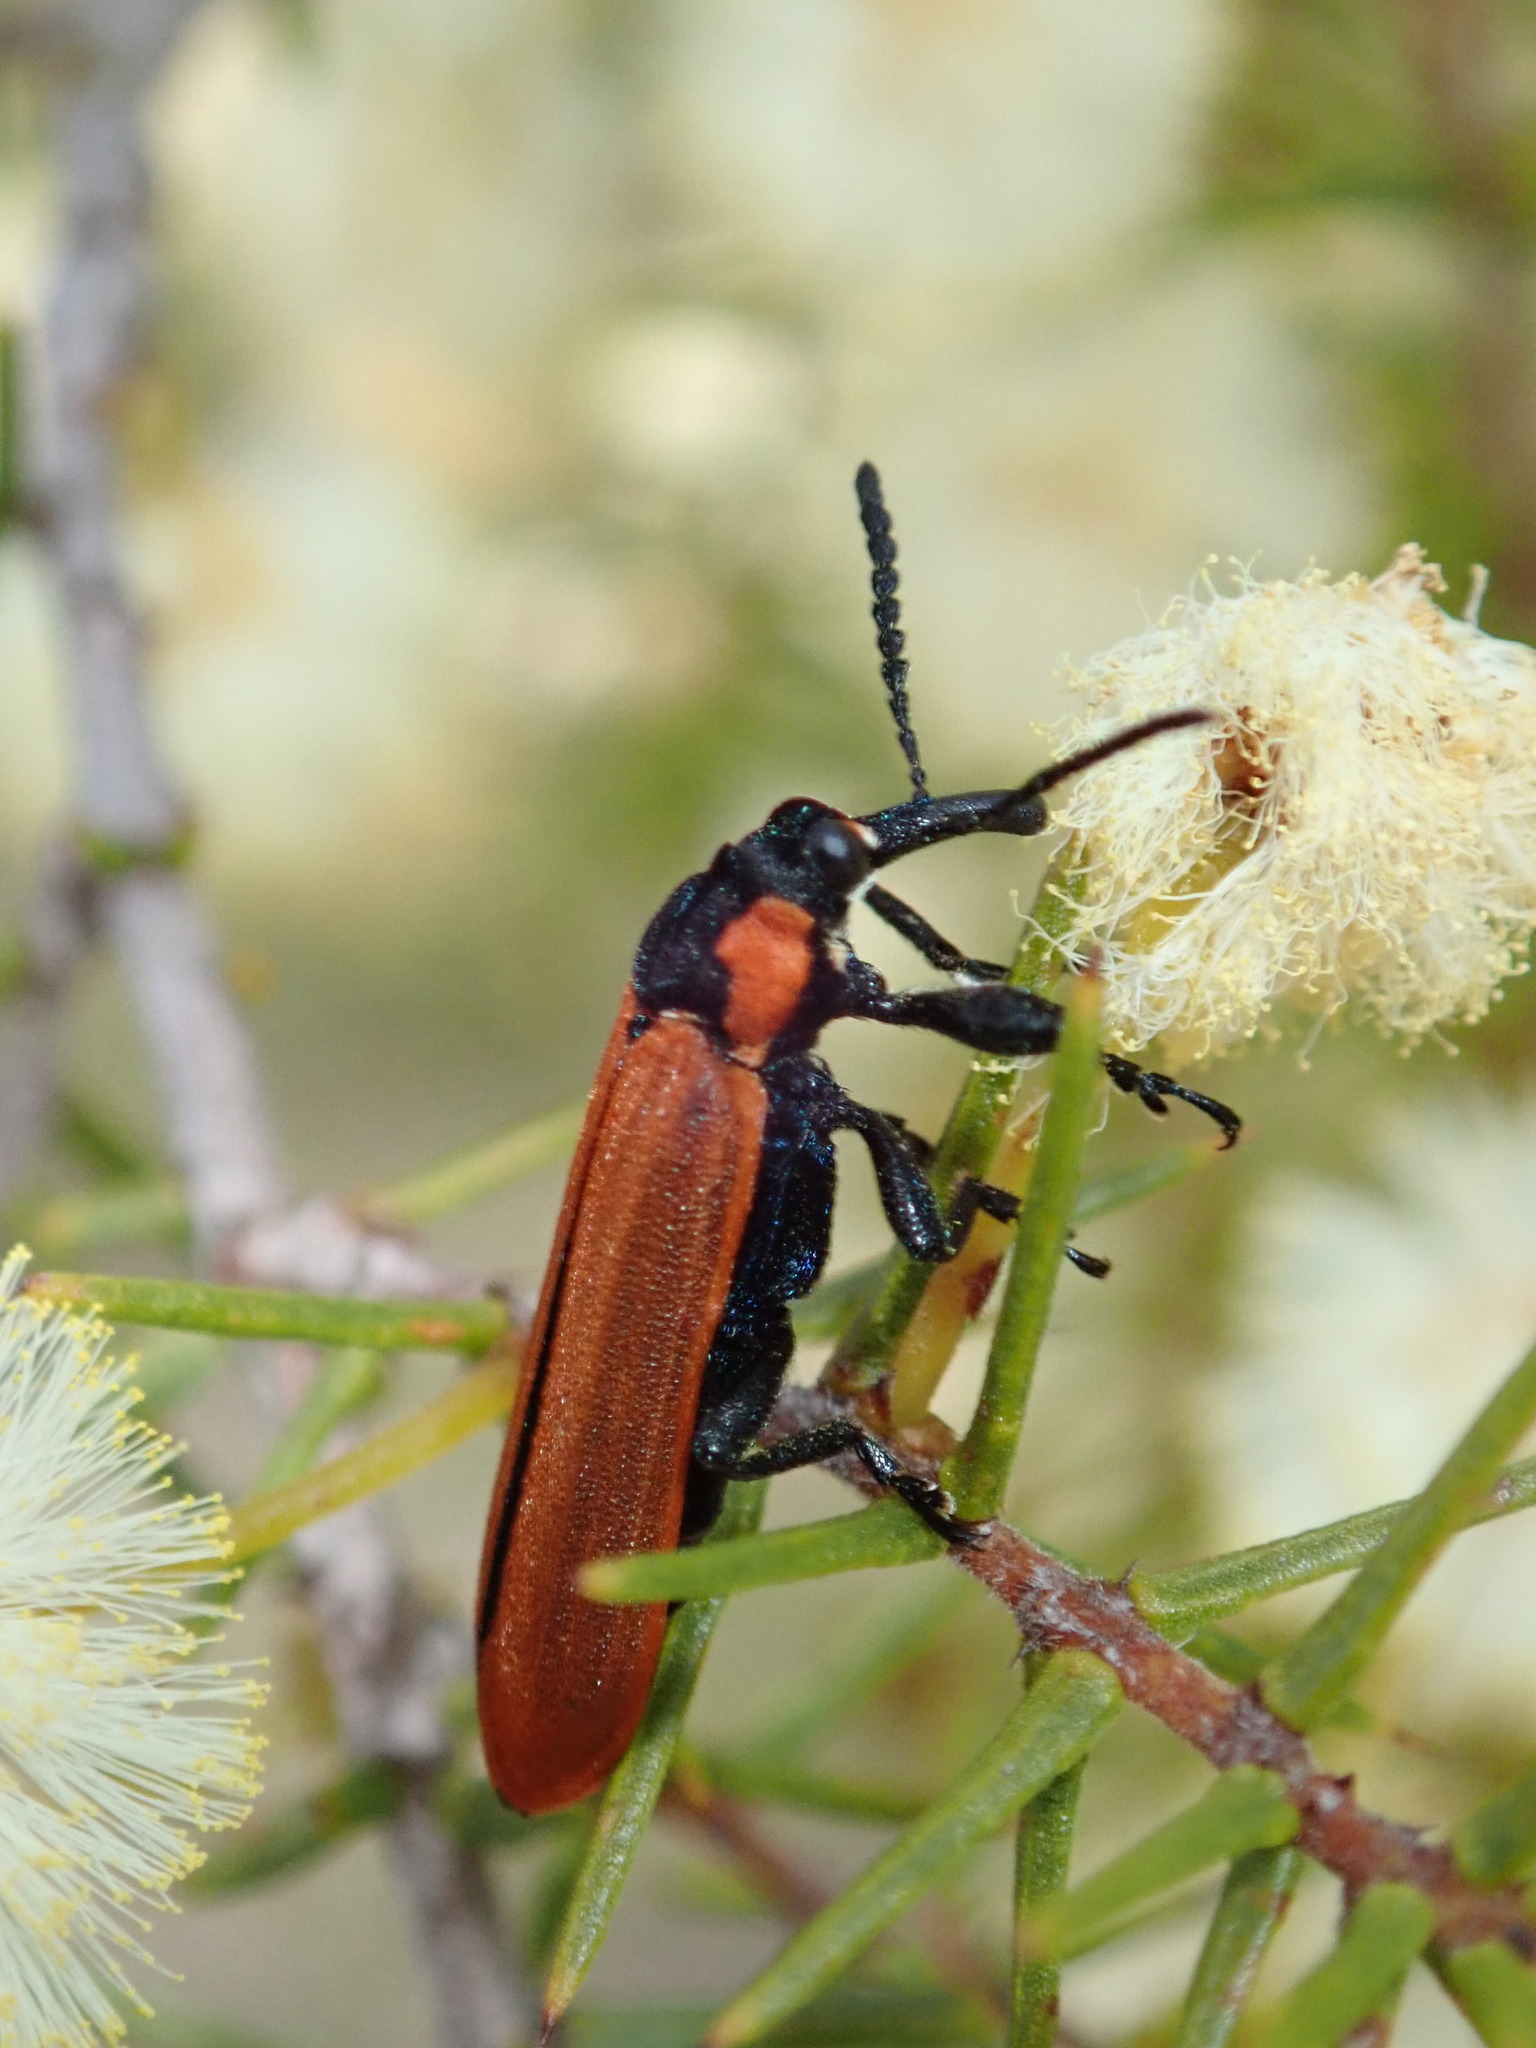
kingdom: Animalia
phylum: Arthropoda
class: Insecta
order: Coleoptera
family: Belidae
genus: Rhinotia
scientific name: Rhinotia haemoptera
